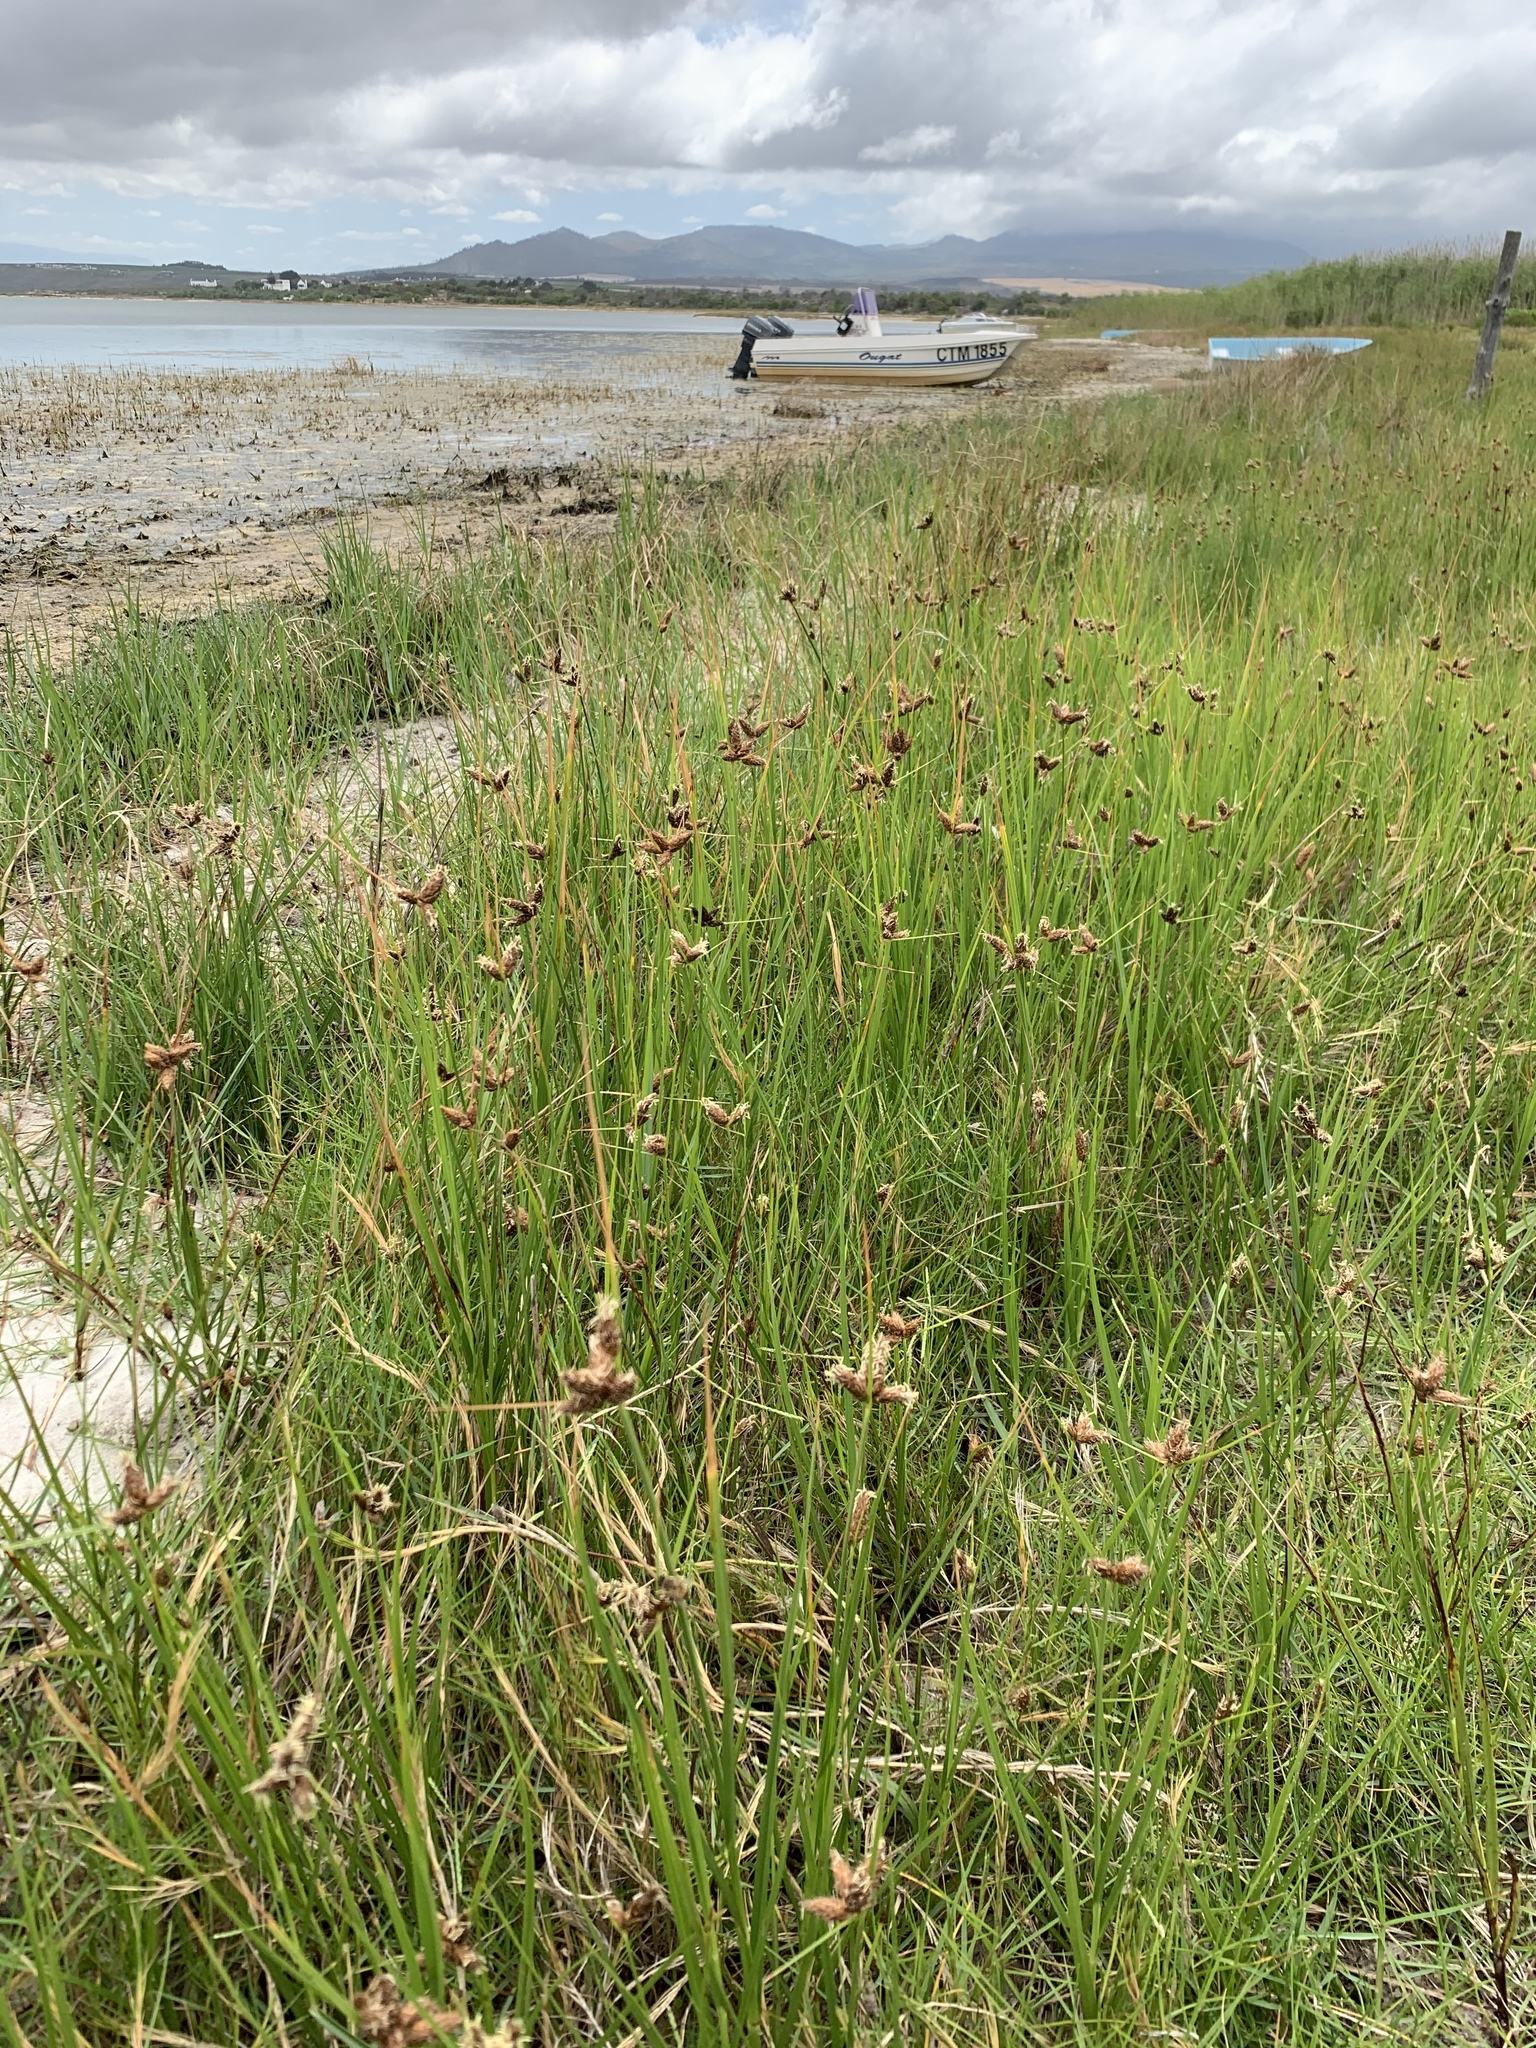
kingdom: Plantae
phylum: Tracheophyta
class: Liliopsida
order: Poales
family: Cyperaceae
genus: Bolboschoenus
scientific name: Bolboschoenus maritimus
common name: Sea club-rush
